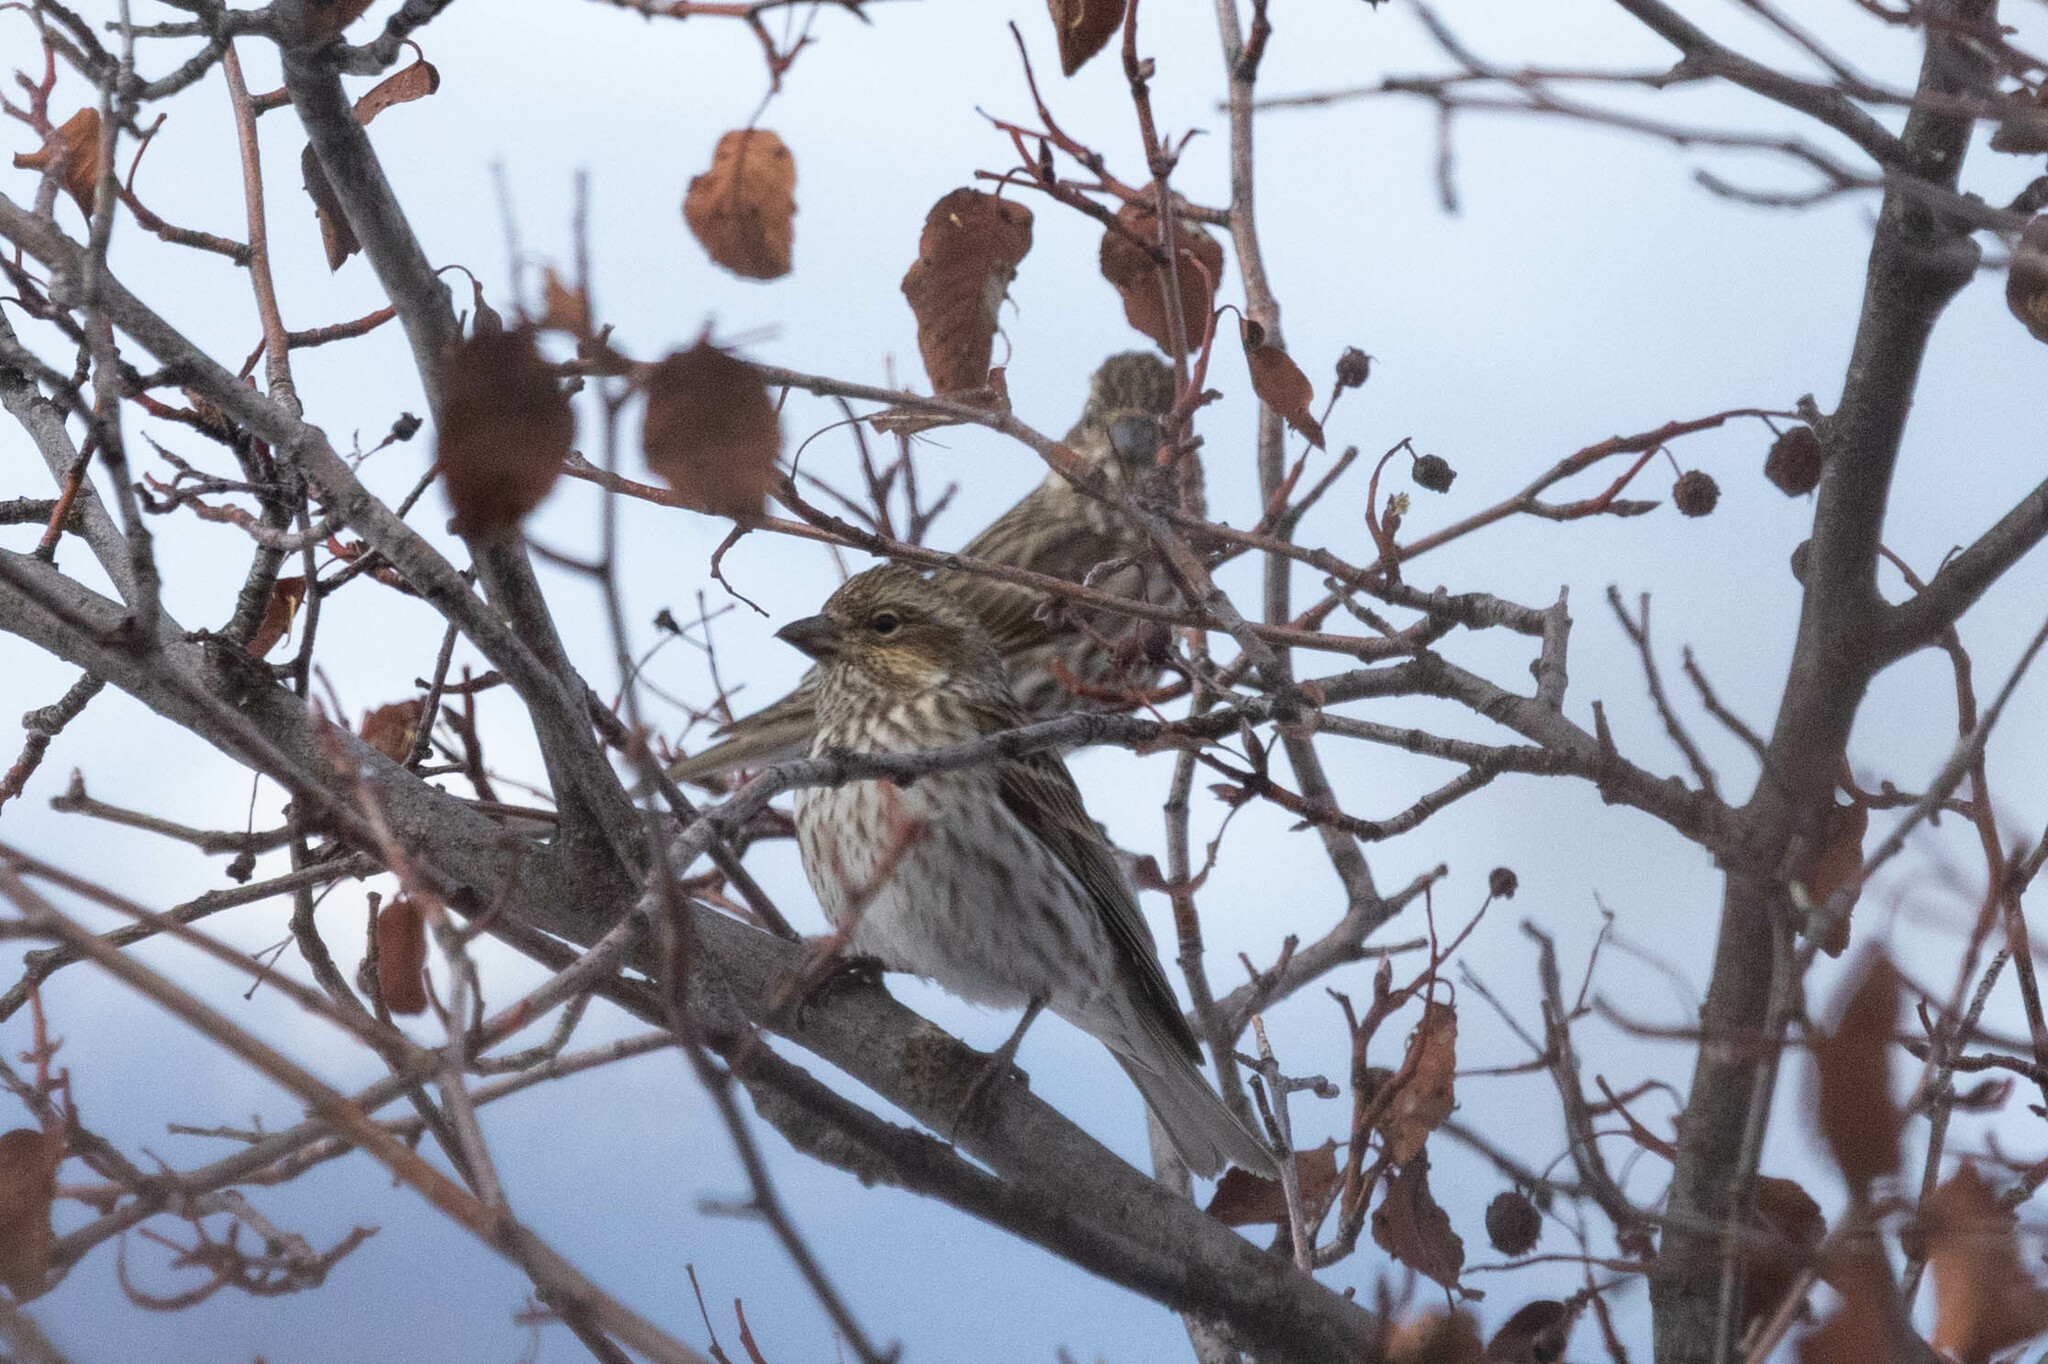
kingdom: Animalia
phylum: Chordata
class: Aves
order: Passeriformes
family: Fringillidae
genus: Haemorhous
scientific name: Haemorhous cassinii
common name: Cassin's finch
